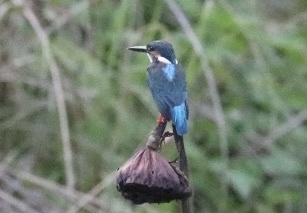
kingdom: Animalia
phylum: Chordata
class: Aves
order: Coraciiformes
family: Alcedinidae
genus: Alcedo
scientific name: Alcedo atthis
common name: Common kingfisher
